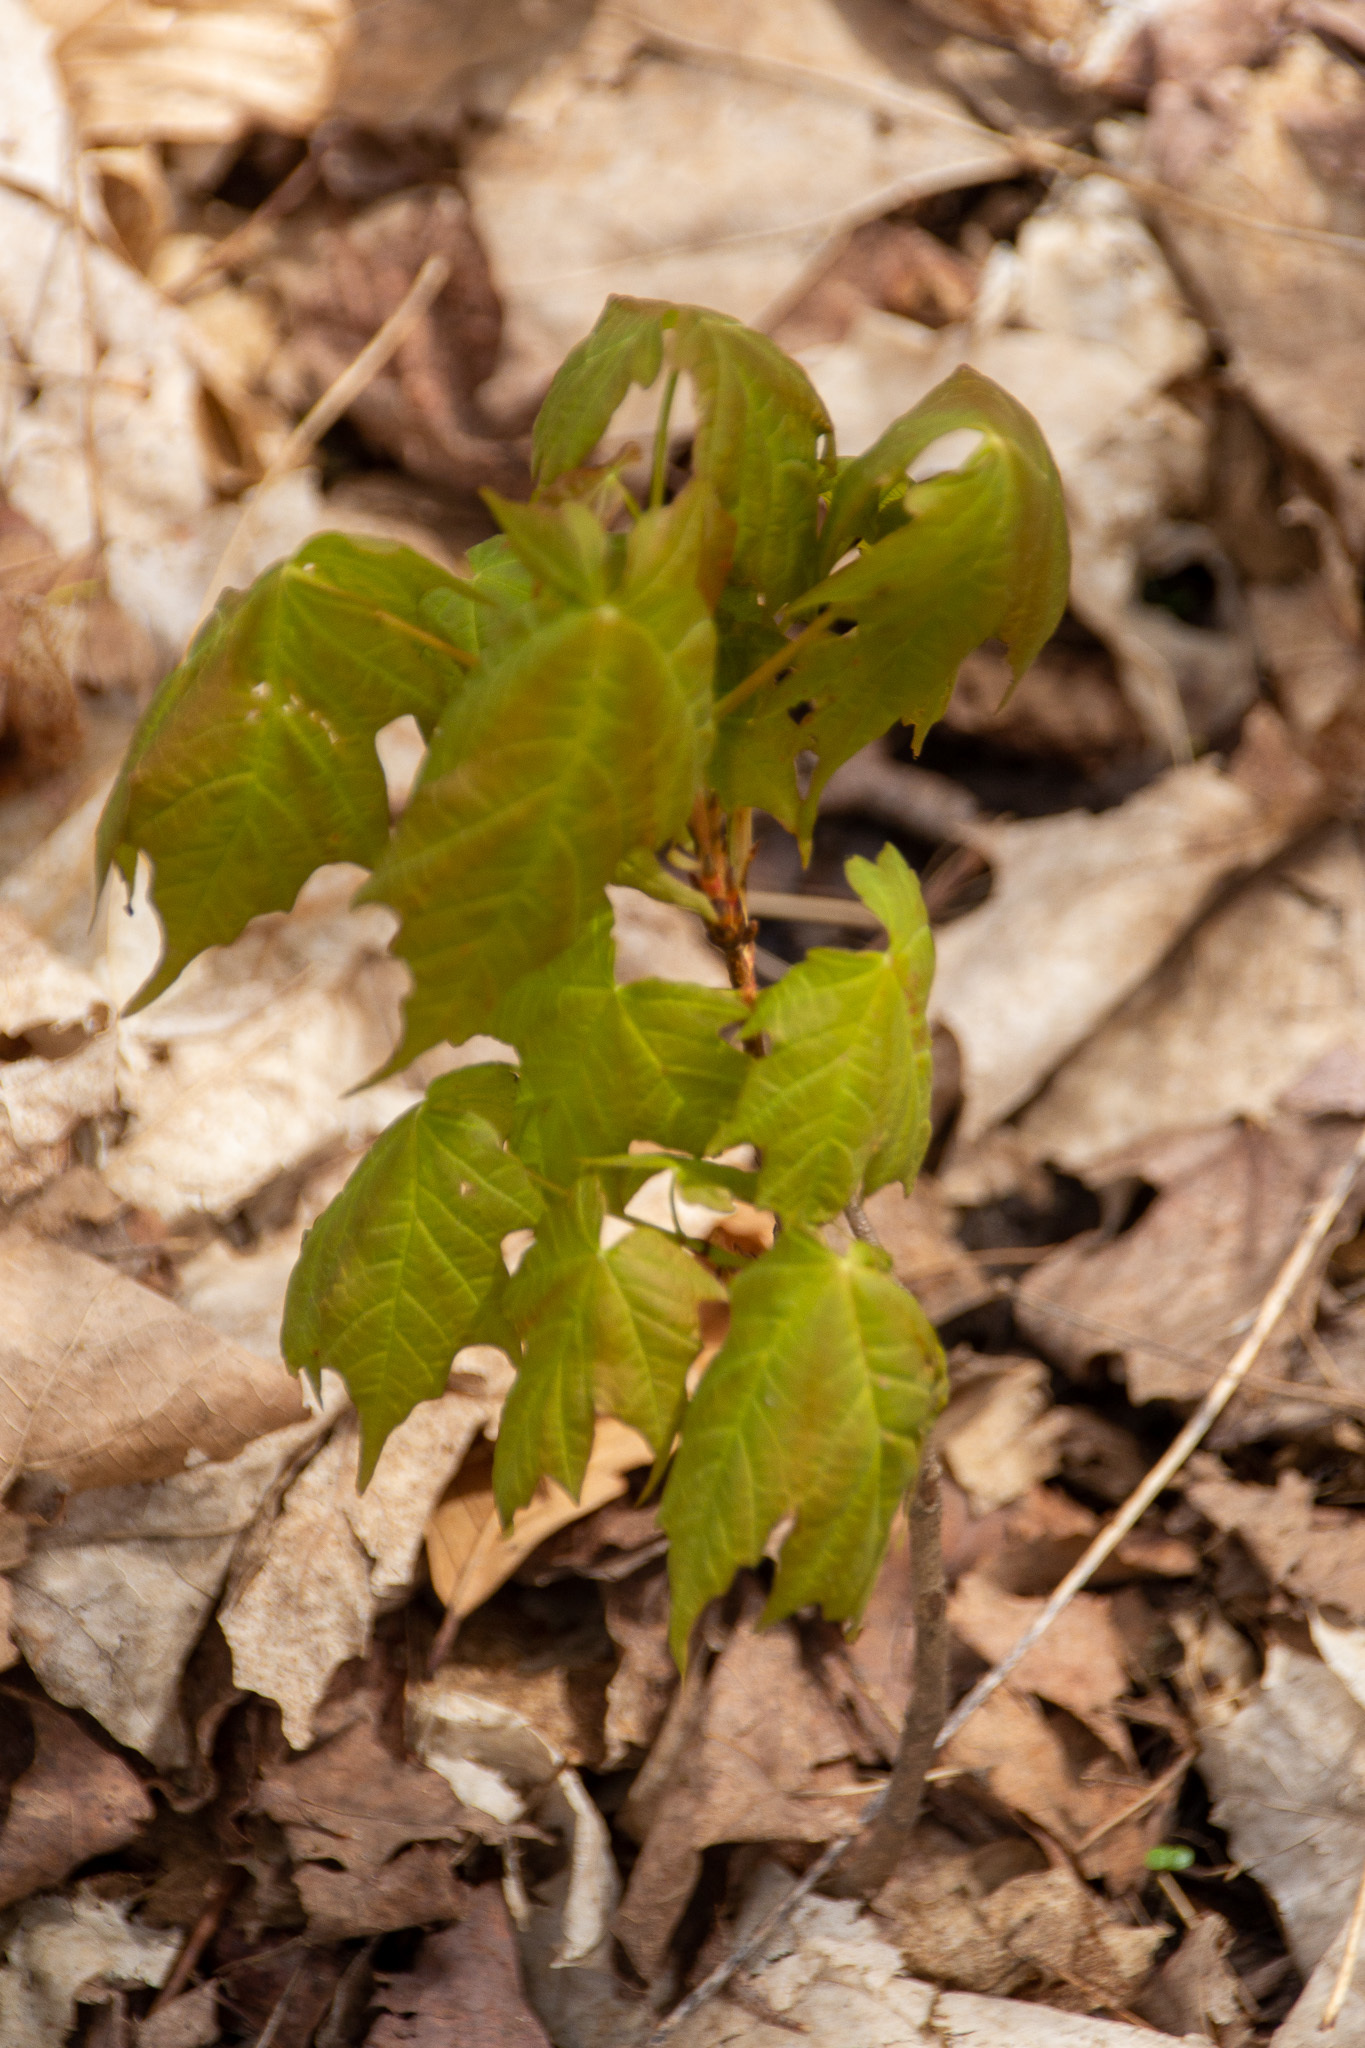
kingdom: Plantae
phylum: Tracheophyta
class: Magnoliopsida
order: Sapindales
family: Sapindaceae
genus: Acer
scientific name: Acer saccharum
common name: Sugar maple
